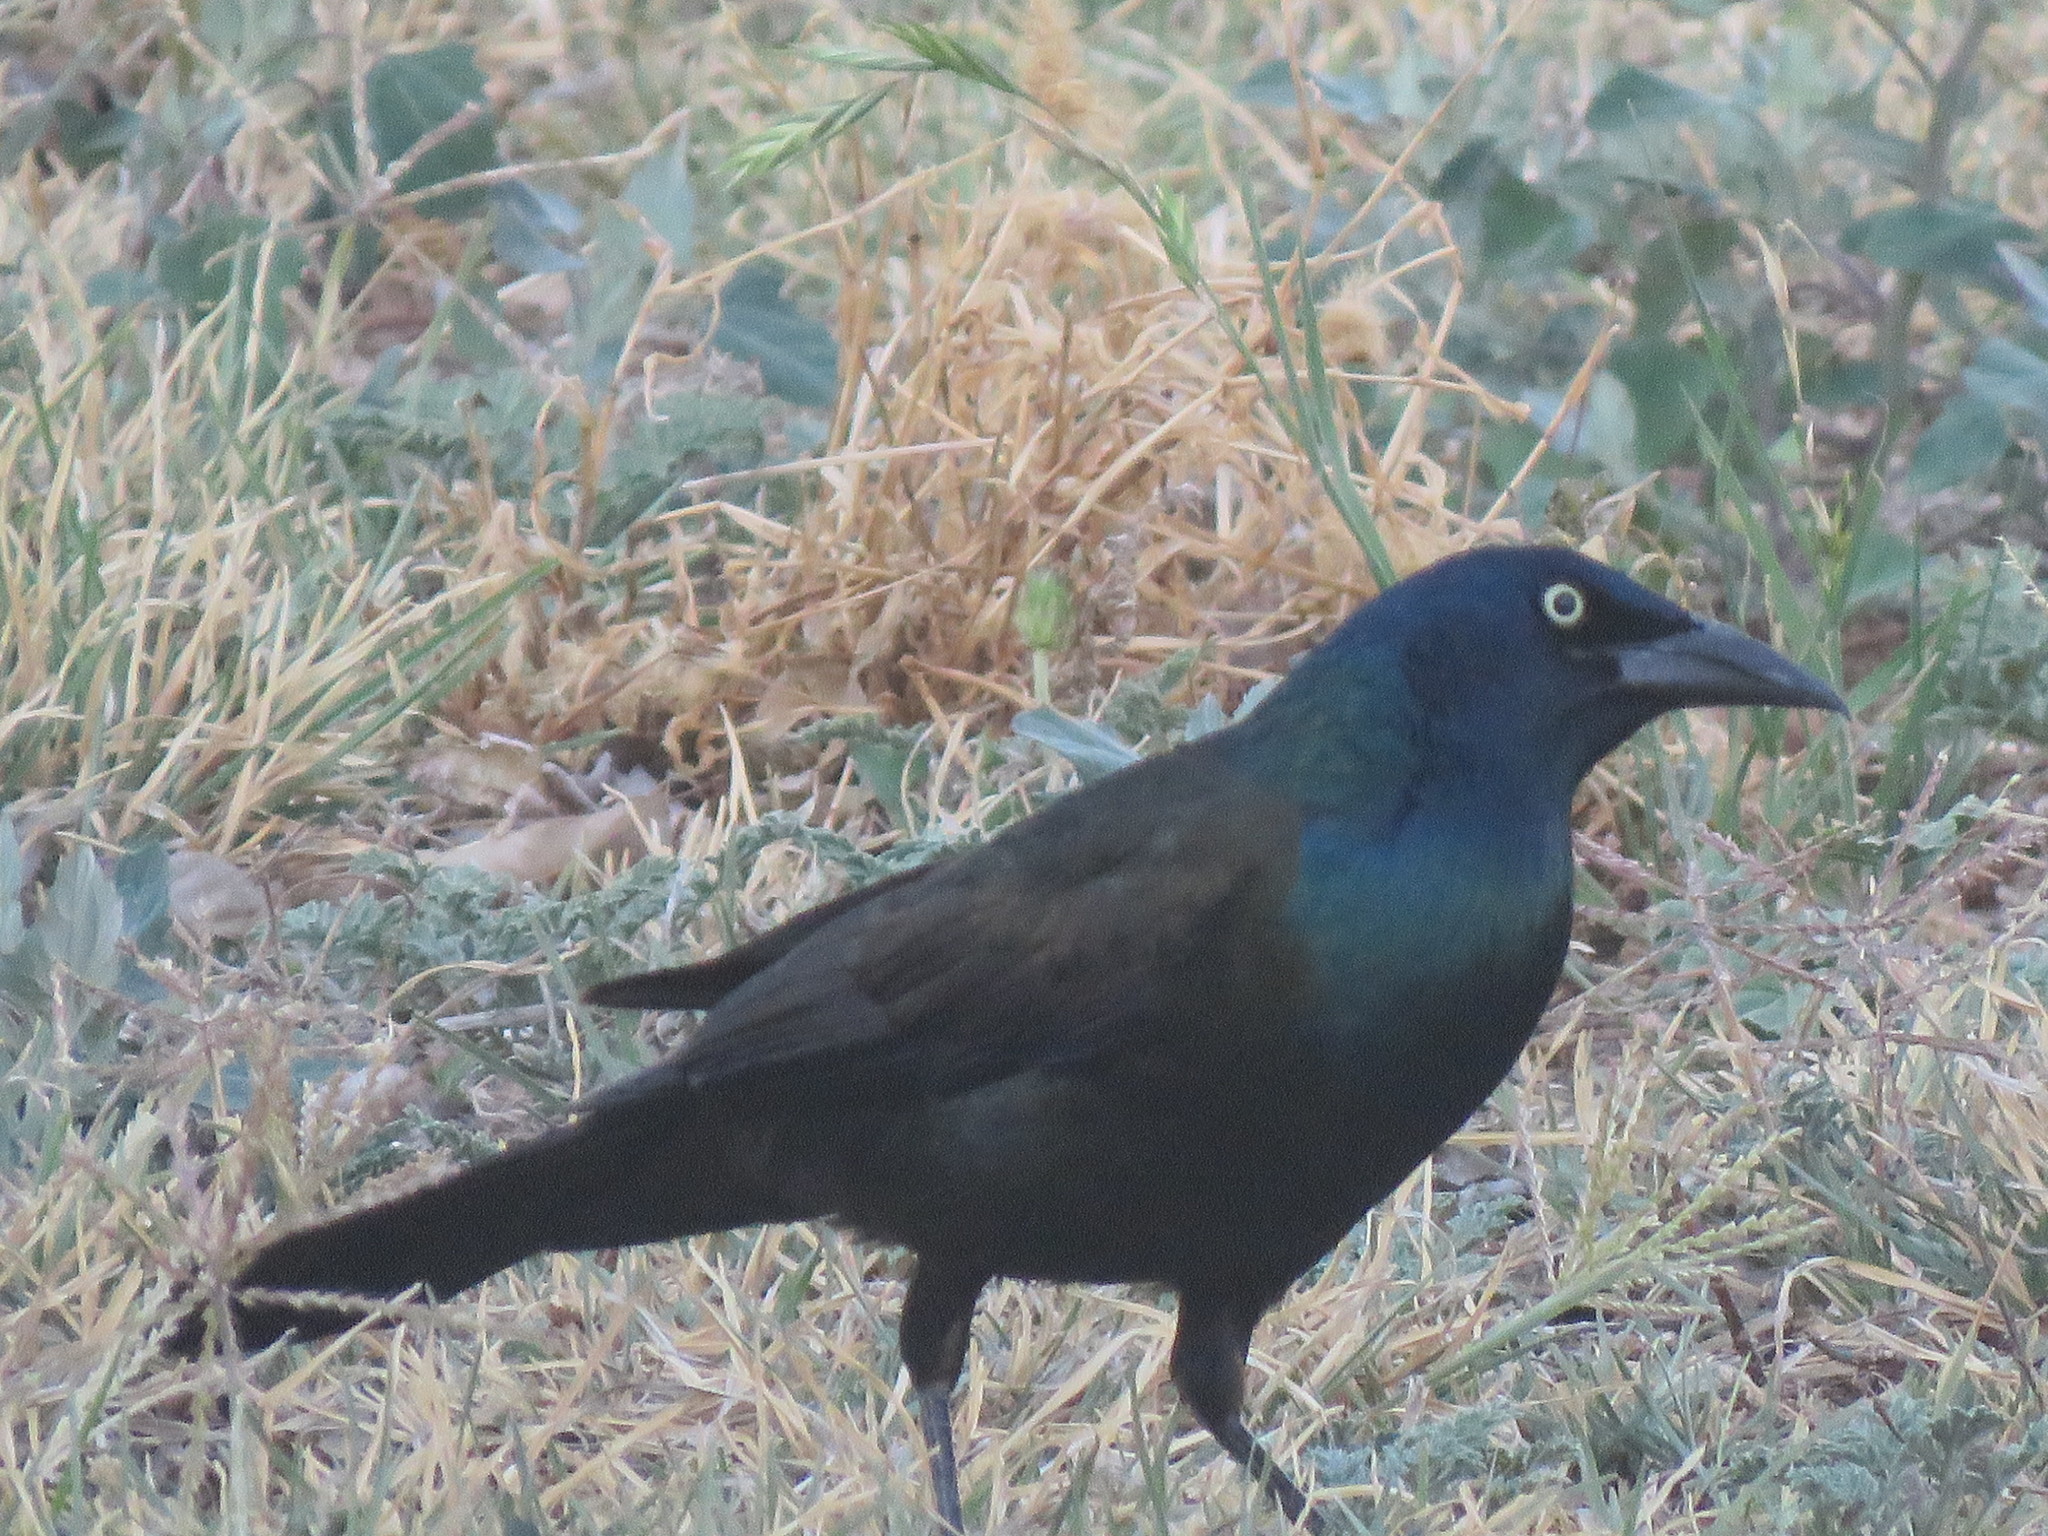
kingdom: Animalia
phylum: Chordata
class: Aves
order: Passeriformes
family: Icteridae
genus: Quiscalus
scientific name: Quiscalus quiscula
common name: Common grackle
